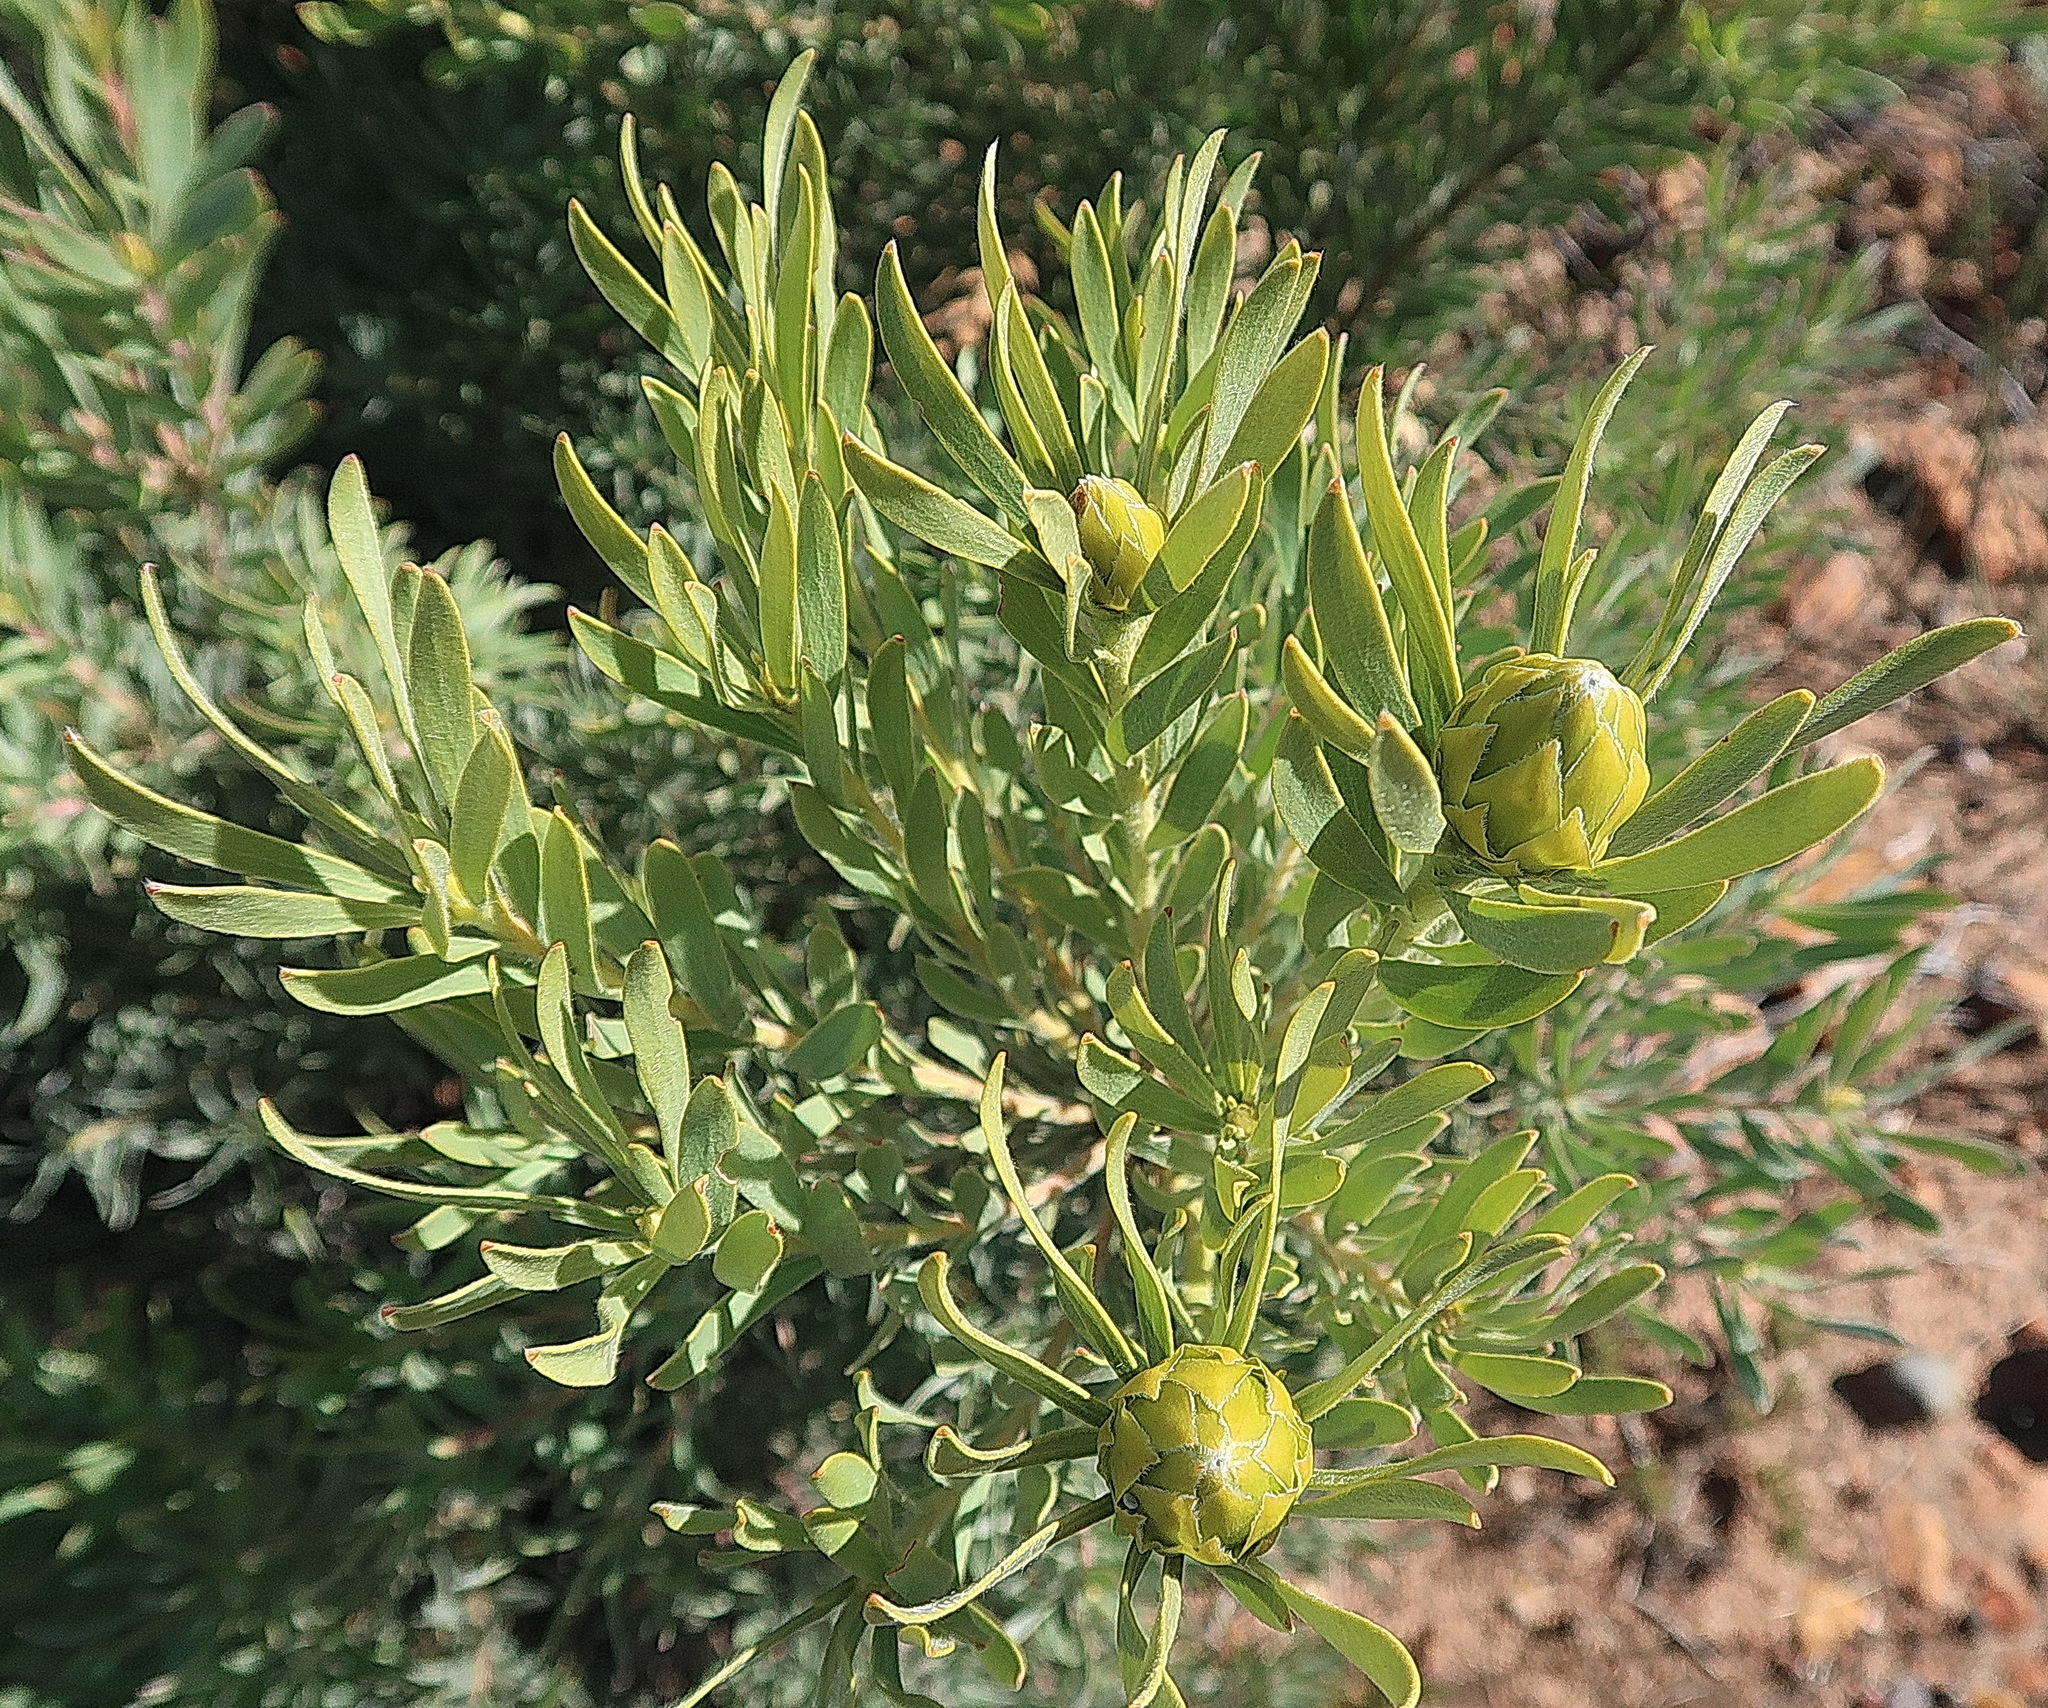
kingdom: Plantae
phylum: Tracheophyta
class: Magnoliopsida
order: Proteales
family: Proteaceae
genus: Leucadendron
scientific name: Leucadendron rubrum
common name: Spinning top
